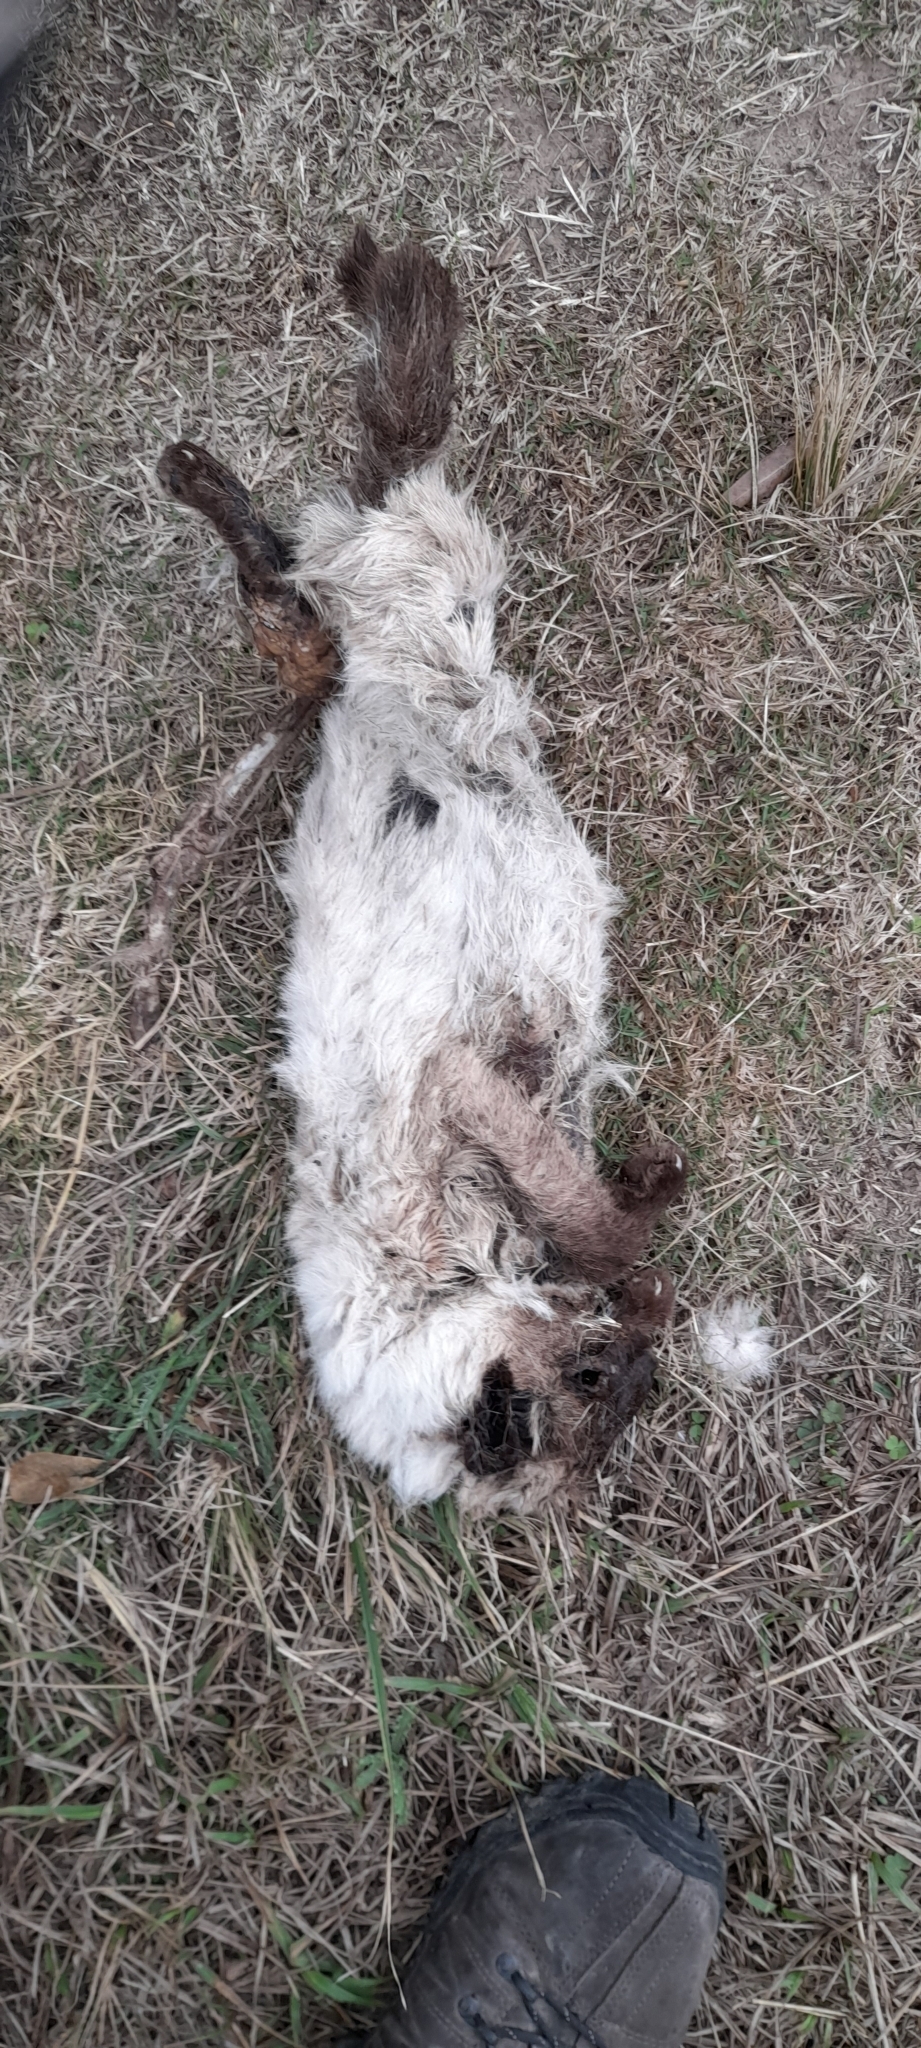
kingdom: Animalia
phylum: Chordata
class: Mammalia
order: Carnivora
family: Felidae
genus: Felis
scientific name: Felis catus
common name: Domestic cat
